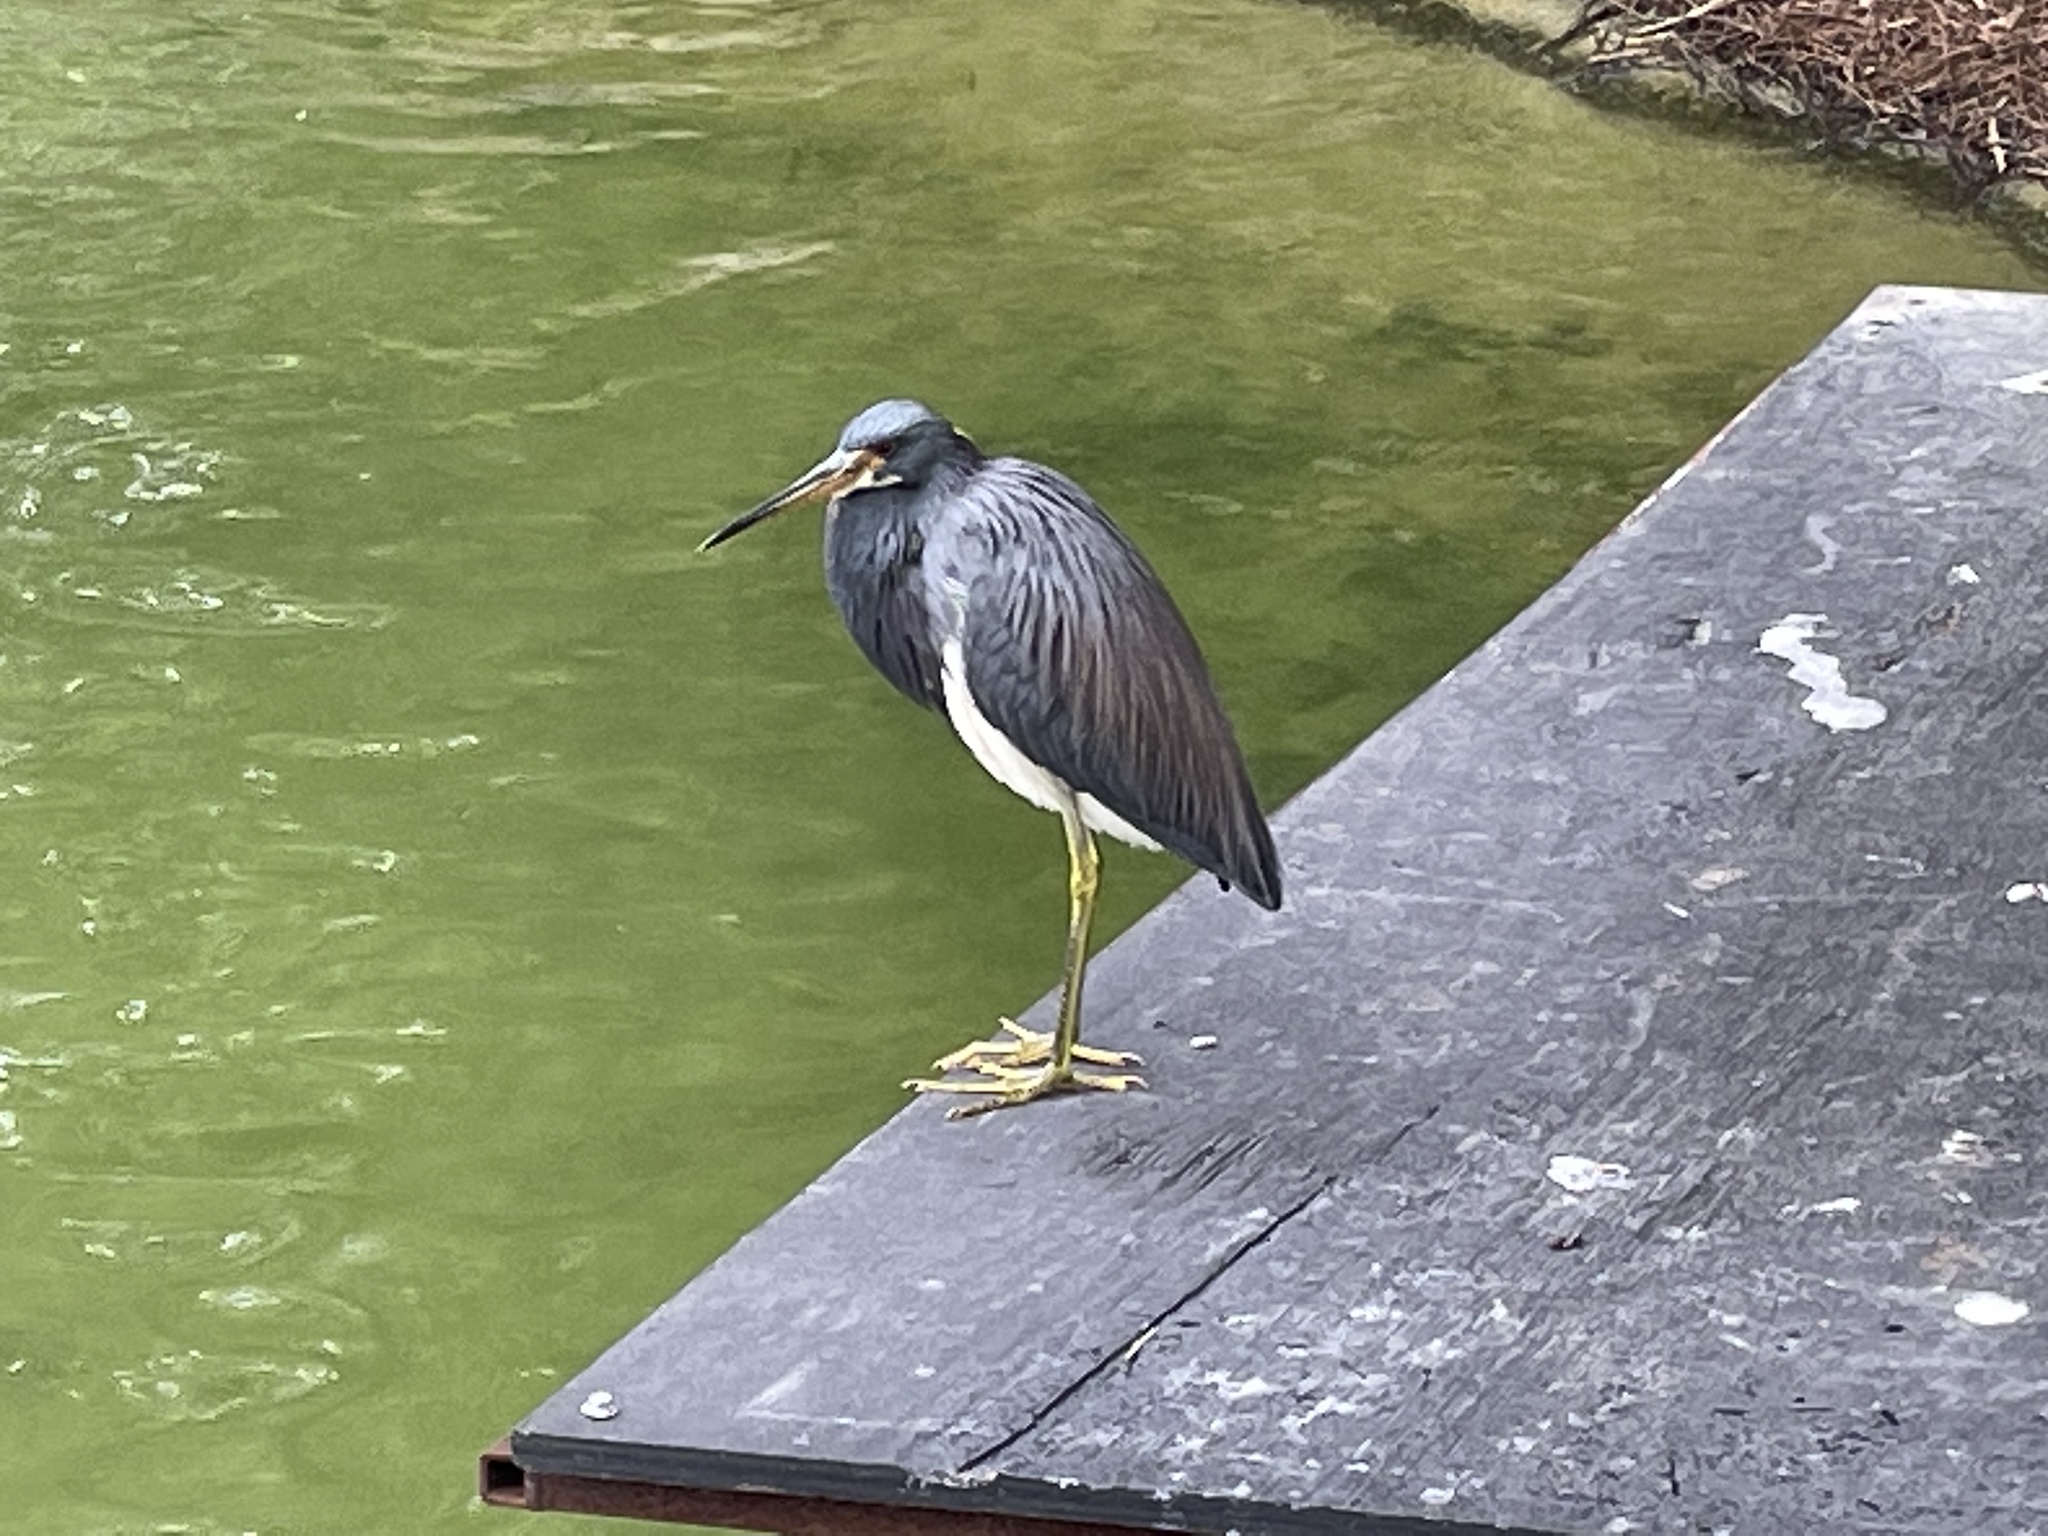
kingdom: Animalia
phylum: Chordata
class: Aves
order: Pelecaniformes
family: Ardeidae
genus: Egretta
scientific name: Egretta tricolor
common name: Tricolored heron
